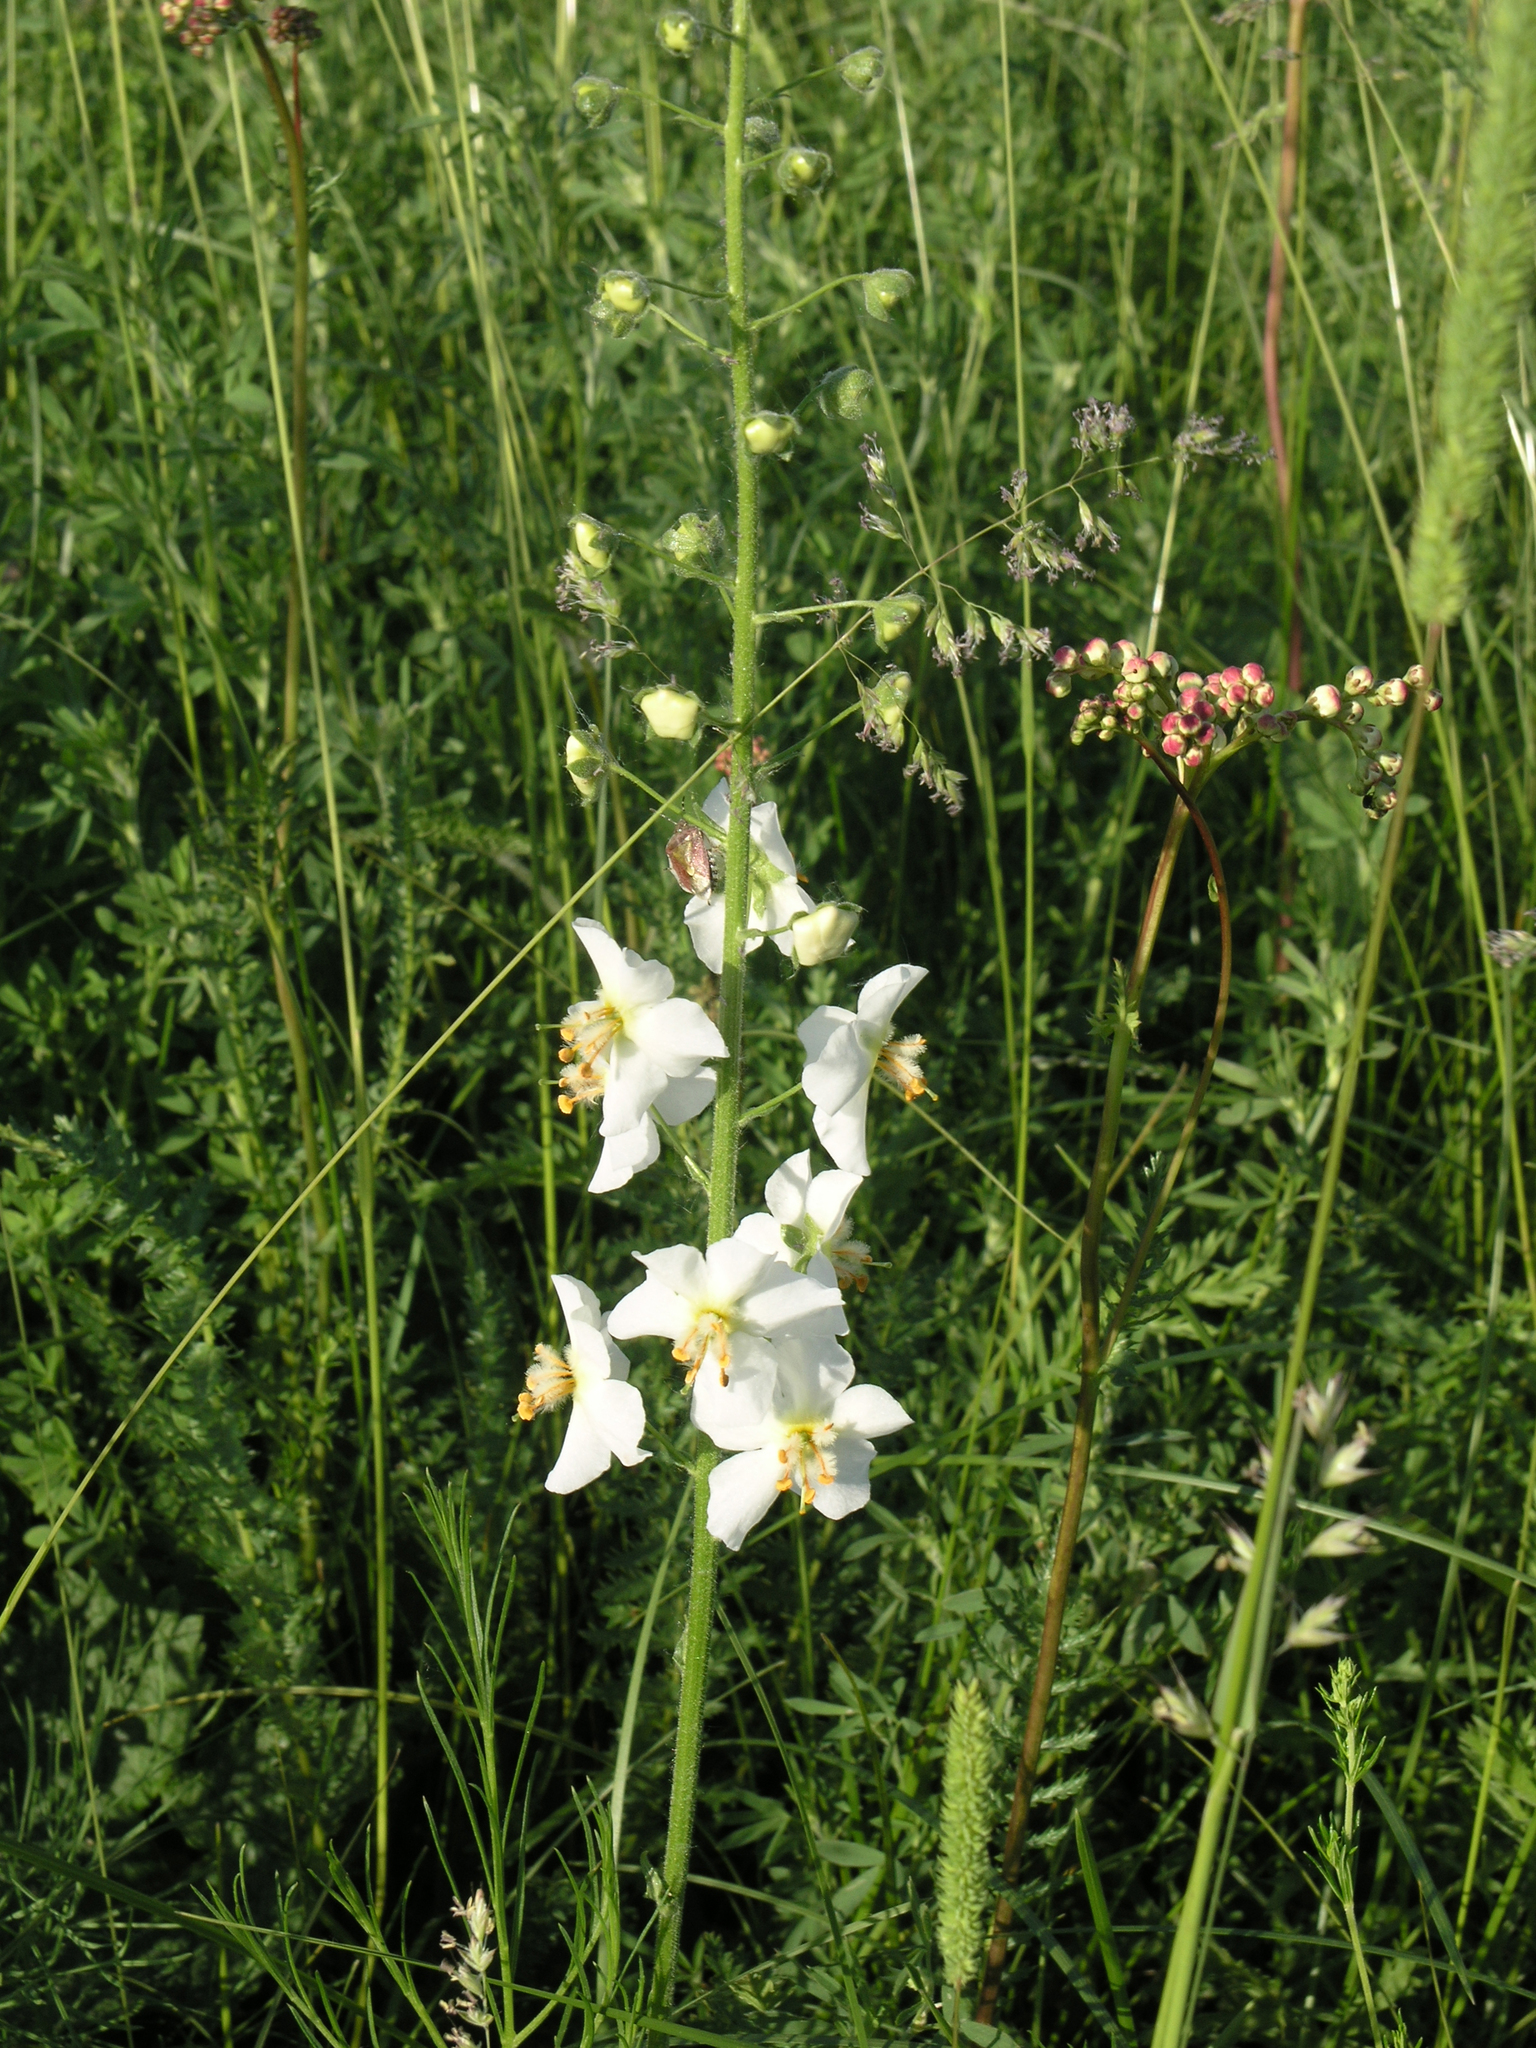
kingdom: Plantae
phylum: Tracheophyta
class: Magnoliopsida
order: Lamiales
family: Scrophulariaceae
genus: Verbascum
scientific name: Verbascum phoeniceum
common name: Purple mullein
